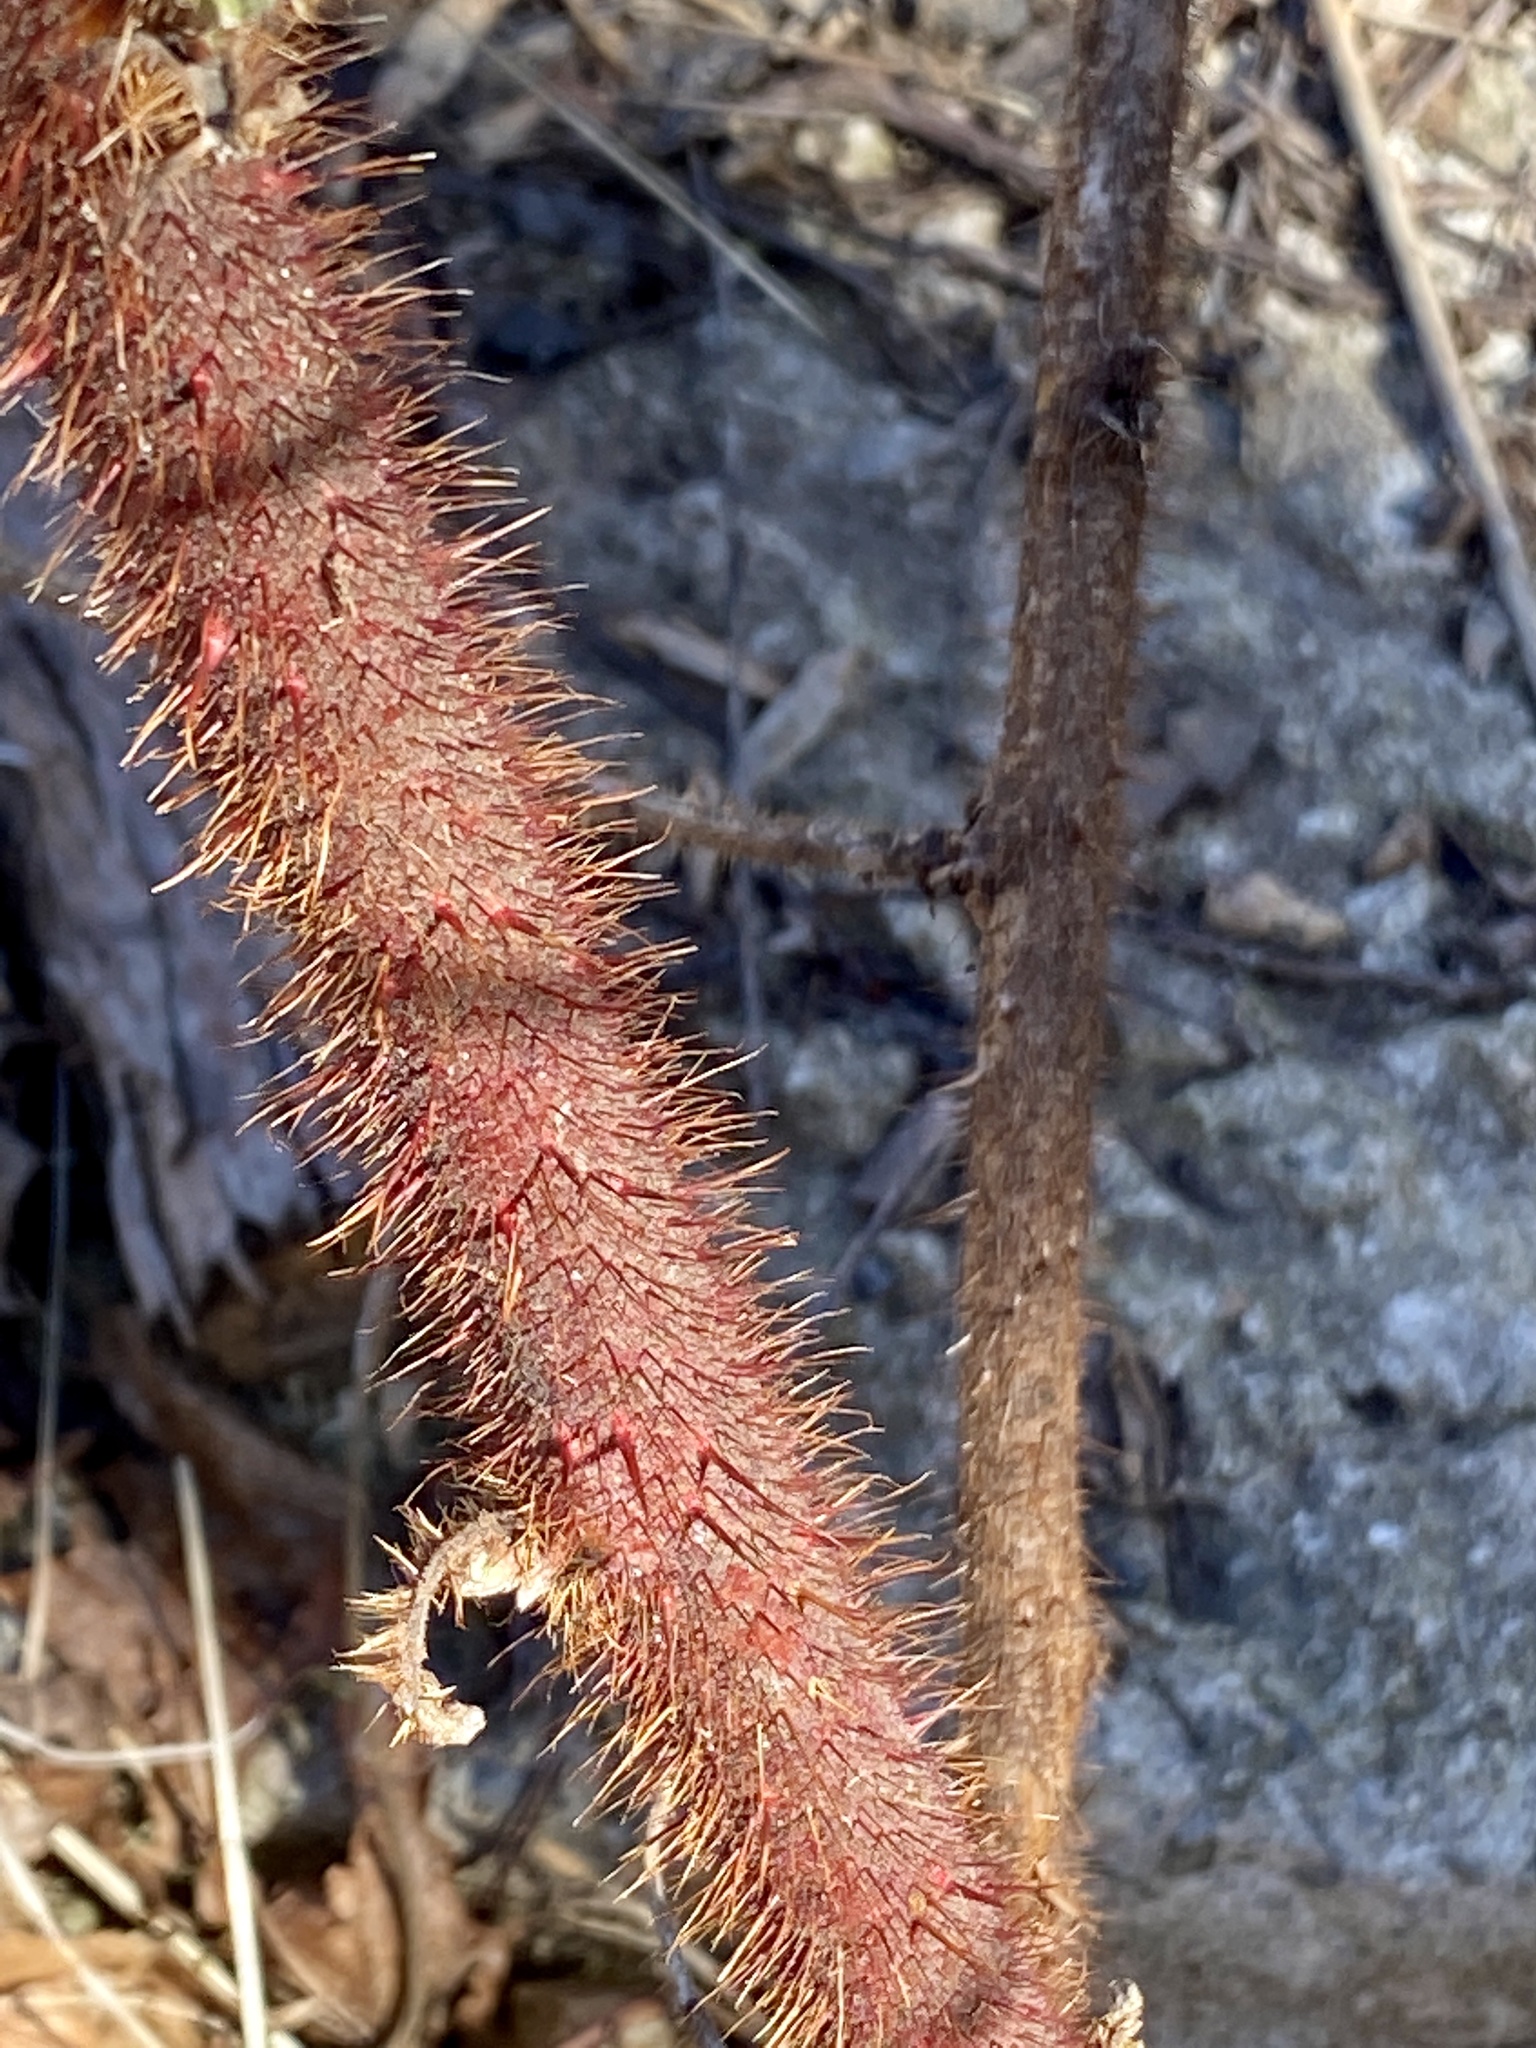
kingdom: Plantae
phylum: Tracheophyta
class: Magnoliopsida
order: Rosales
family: Rosaceae
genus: Rubus
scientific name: Rubus phoenicolasius
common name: Japanese wineberry
